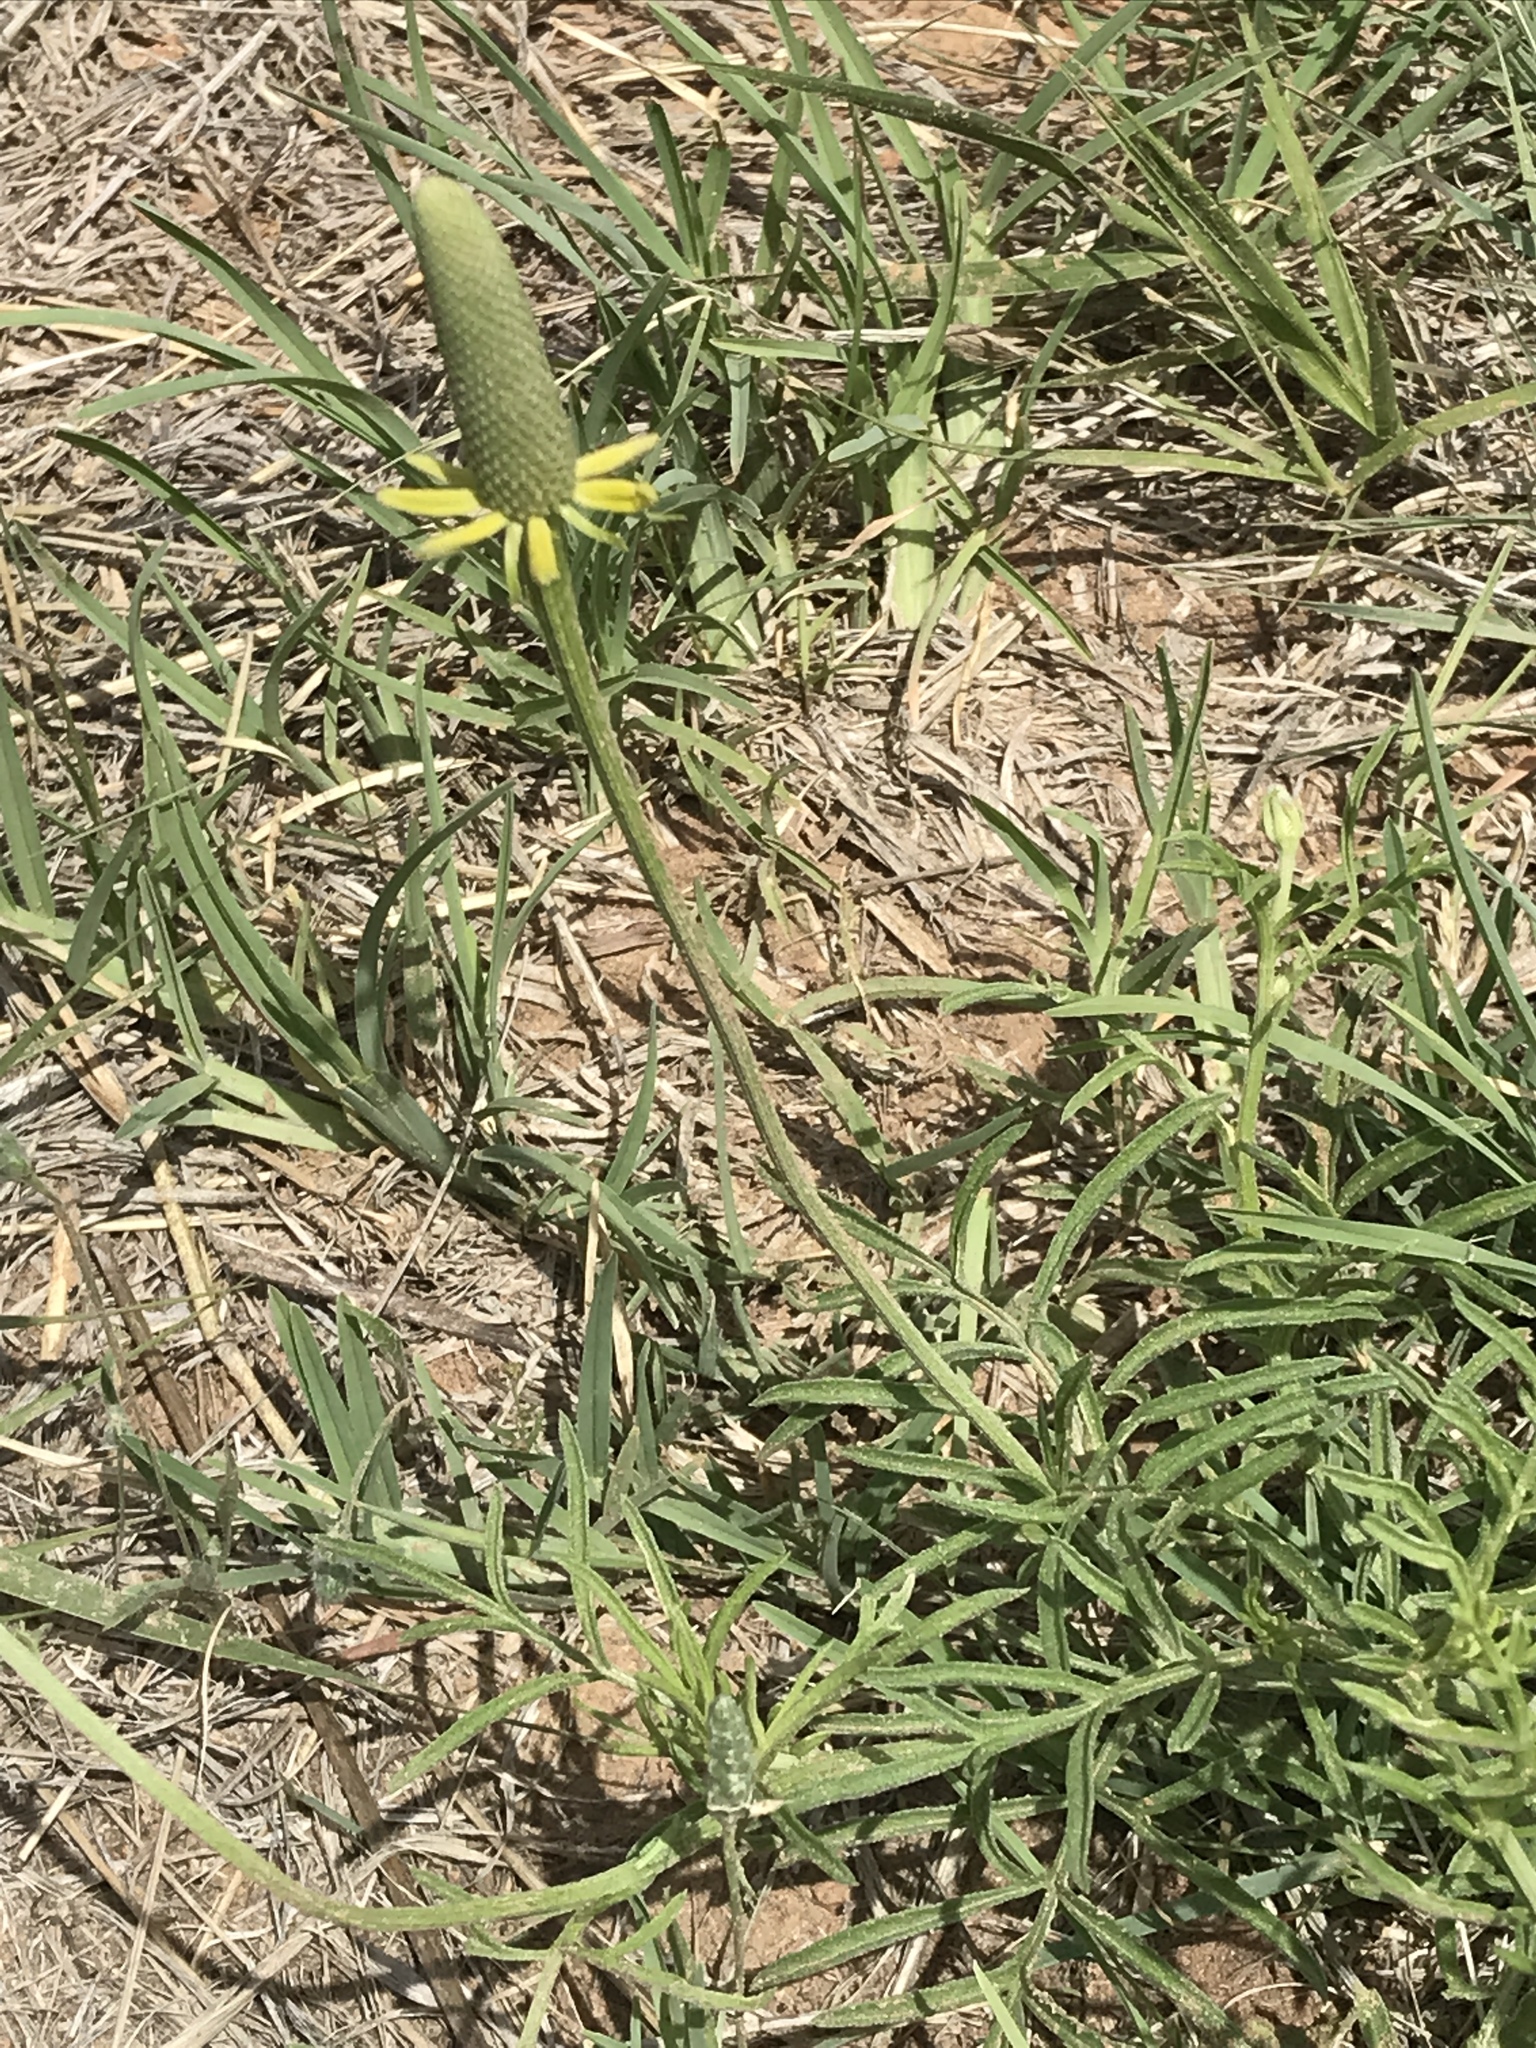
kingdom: Plantae
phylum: Tracheophyta
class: Magnoliopsida
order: Asterales
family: Asteraceae
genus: Ratibida
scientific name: Ratibida columnifera
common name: Prairie coneflower
